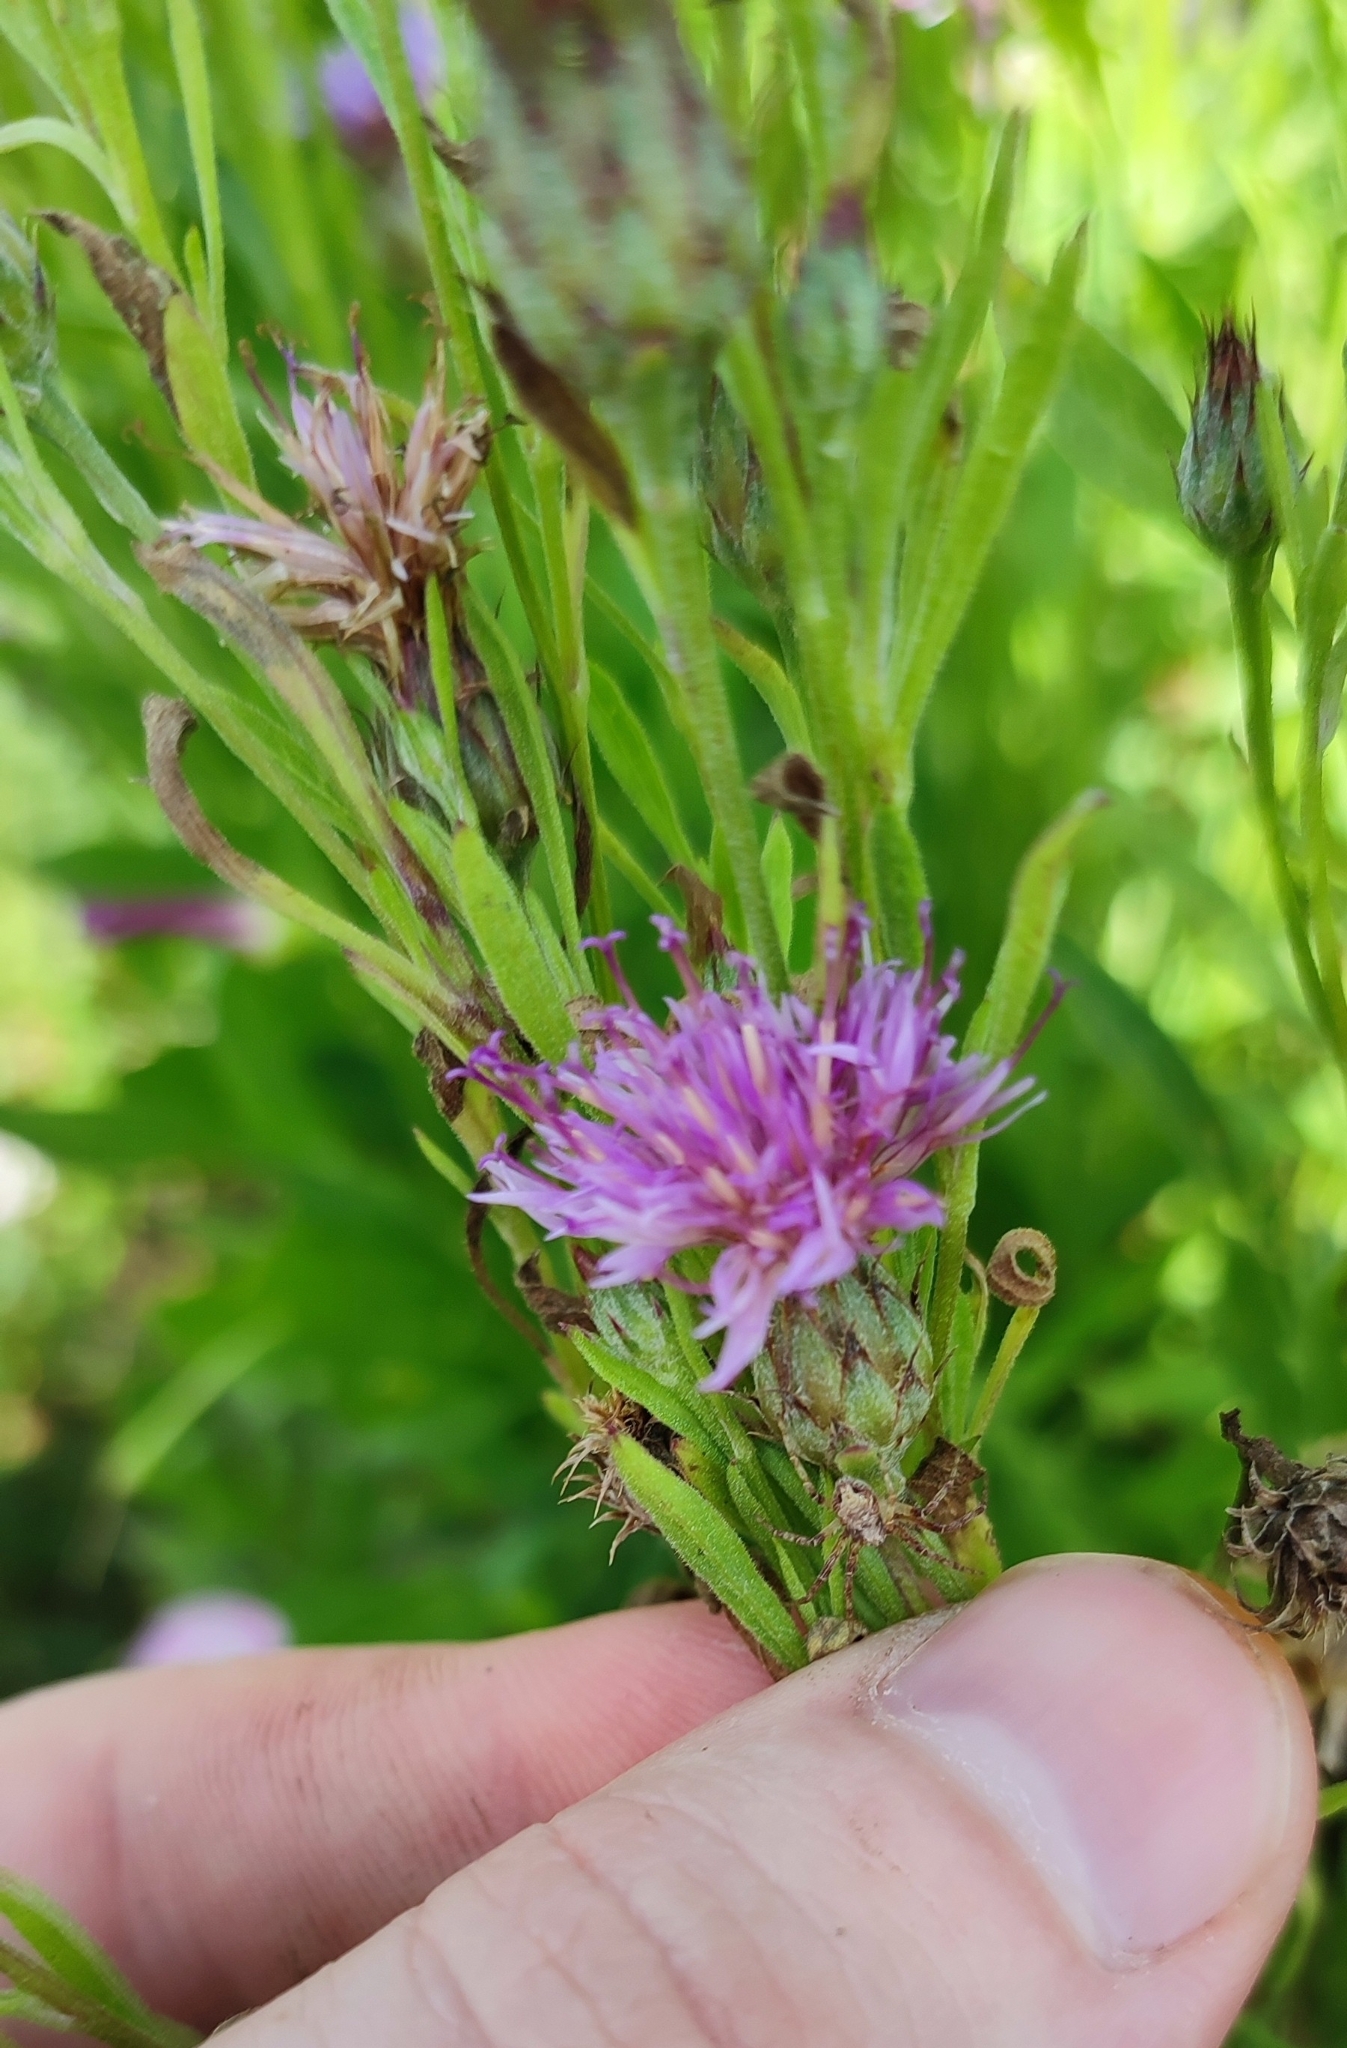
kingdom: Plantae
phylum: Tracheophyta
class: Magnoliopsida
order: Asterales
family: Asteraceae
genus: Centaurea
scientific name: Centaurea adpressa
